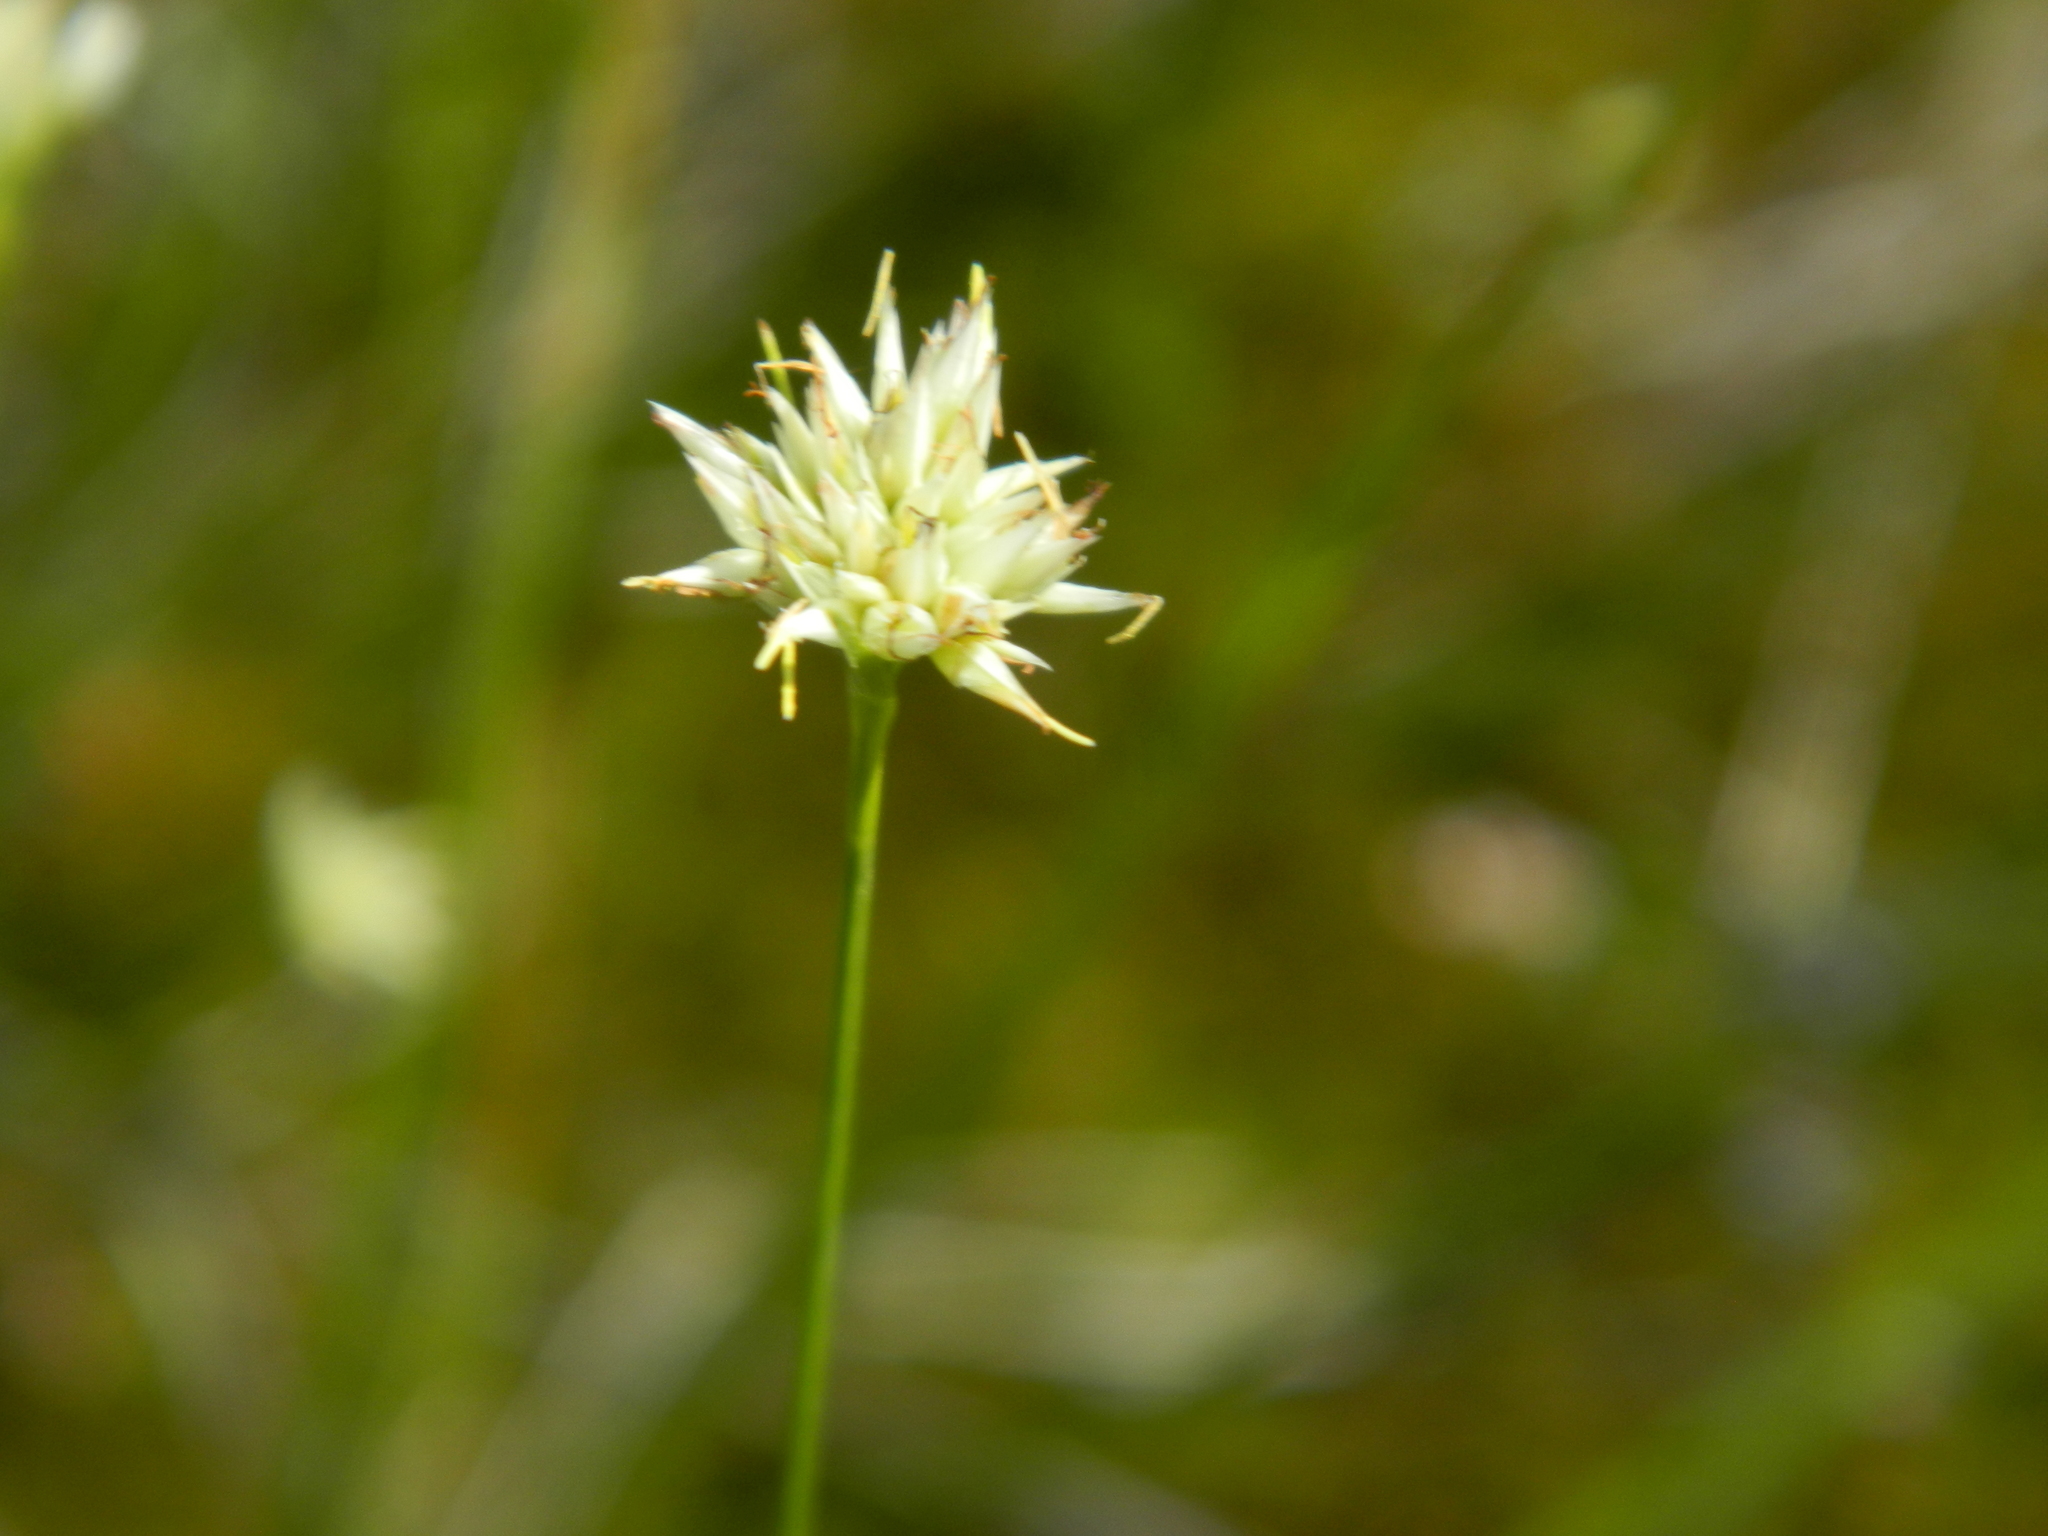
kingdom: Plantae
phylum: Tracheophyta
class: Liliopsida
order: Poales
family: Cyperaceae
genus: Rhynchospora
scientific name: Rhynchospora alba
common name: White beak-sedge
